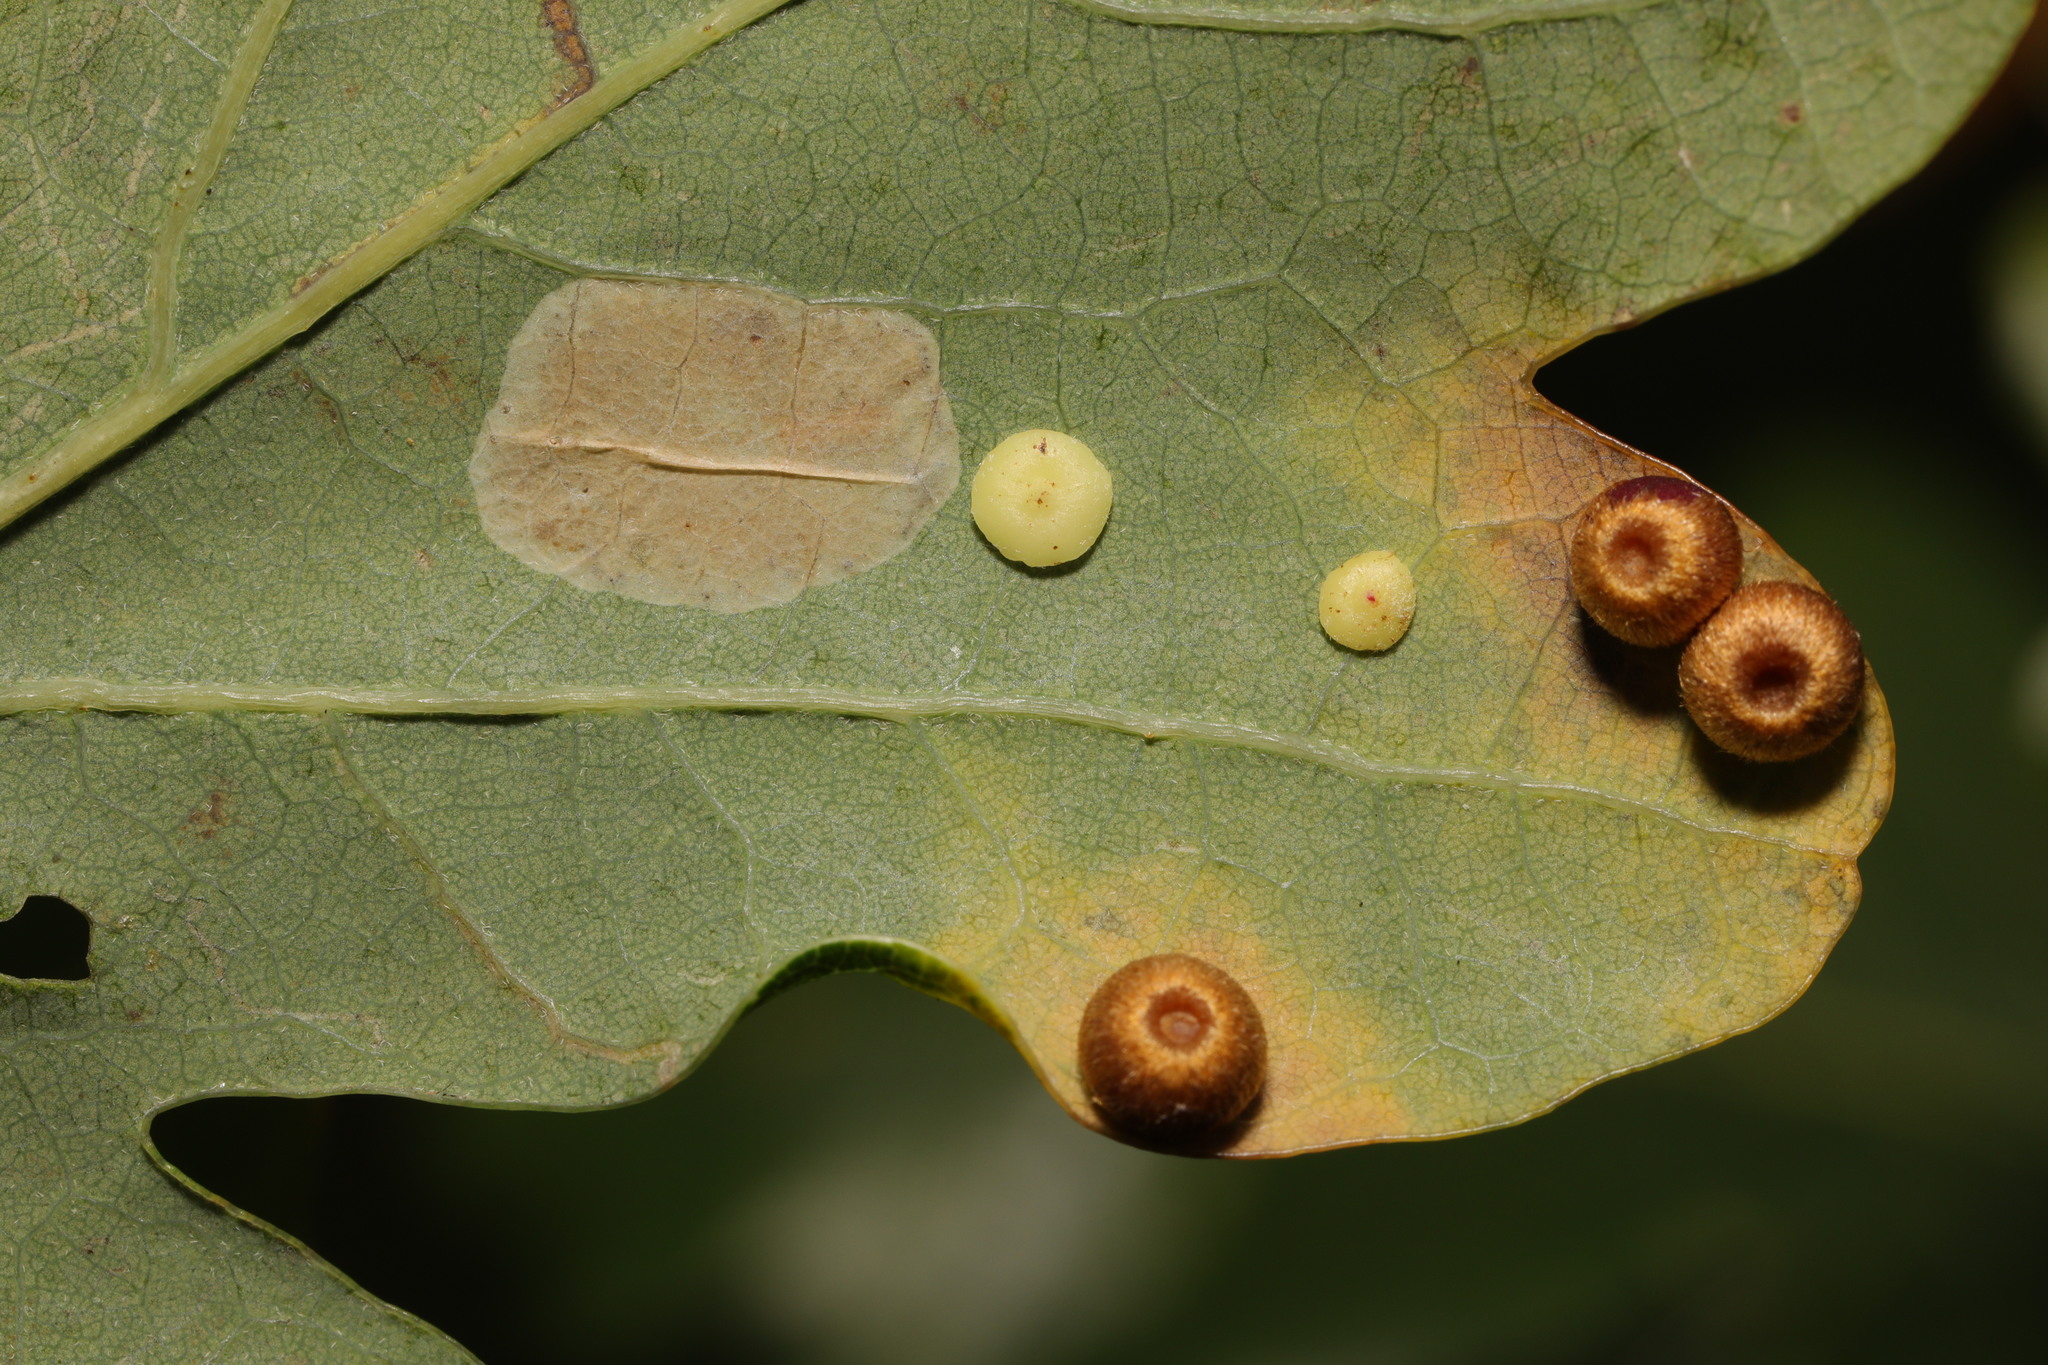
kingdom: Animalia
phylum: Arthropoda
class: Insecta
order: Hymenoptera
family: Cynipidae
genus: Neuroterus
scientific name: Neuroterus albipes
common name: Smooth spangle gall
